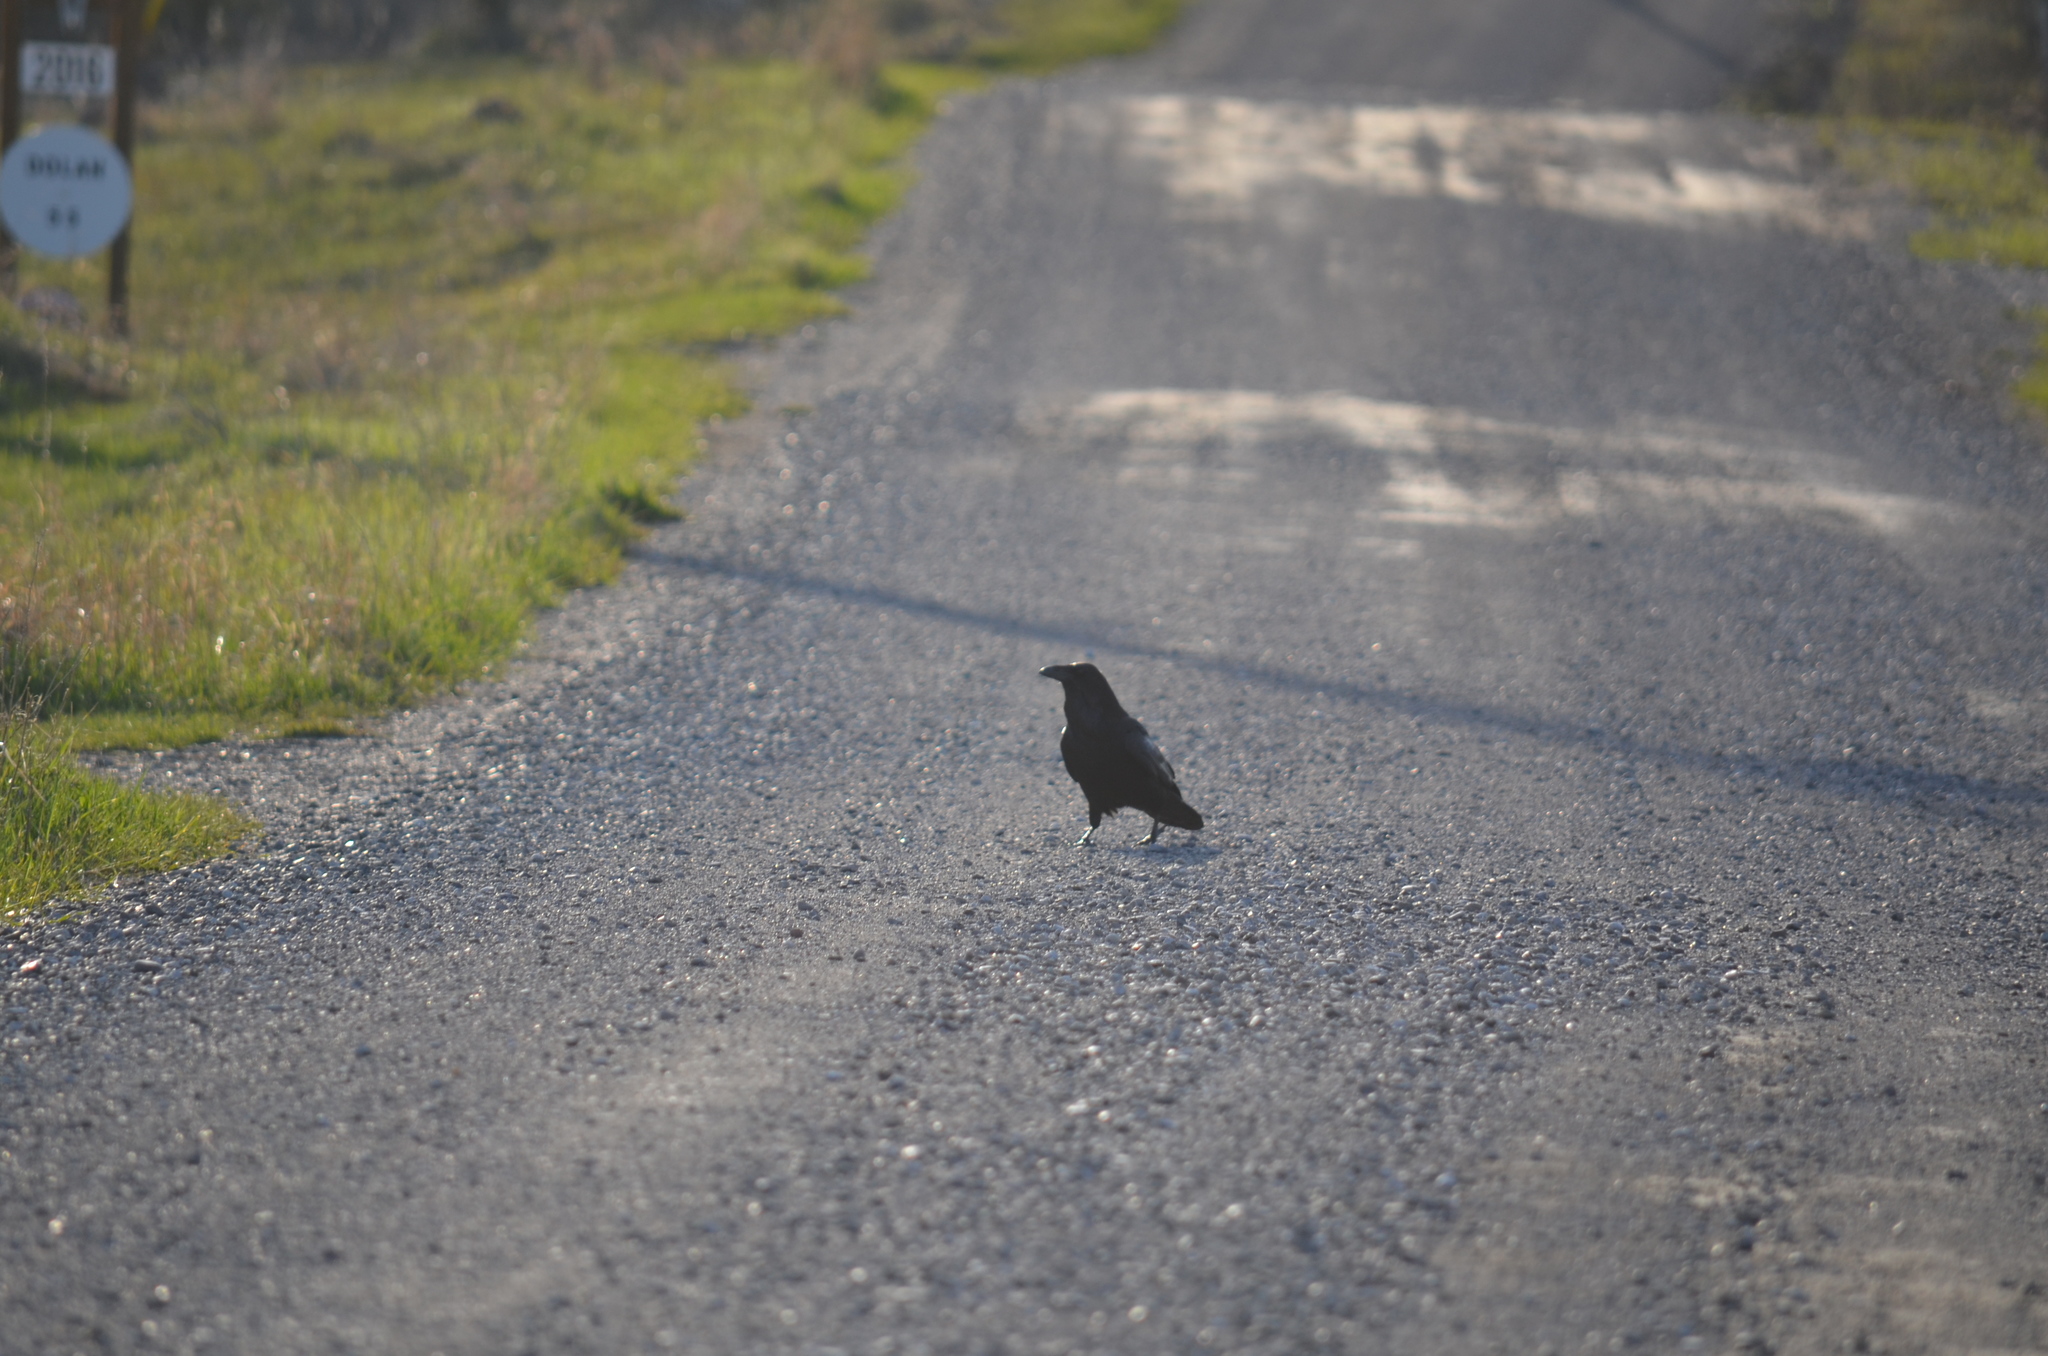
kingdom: Animalia
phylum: Chordata
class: Aves
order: Passeriformes
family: Corvidae
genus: Corvus
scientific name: Corvus corax
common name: Common raven
